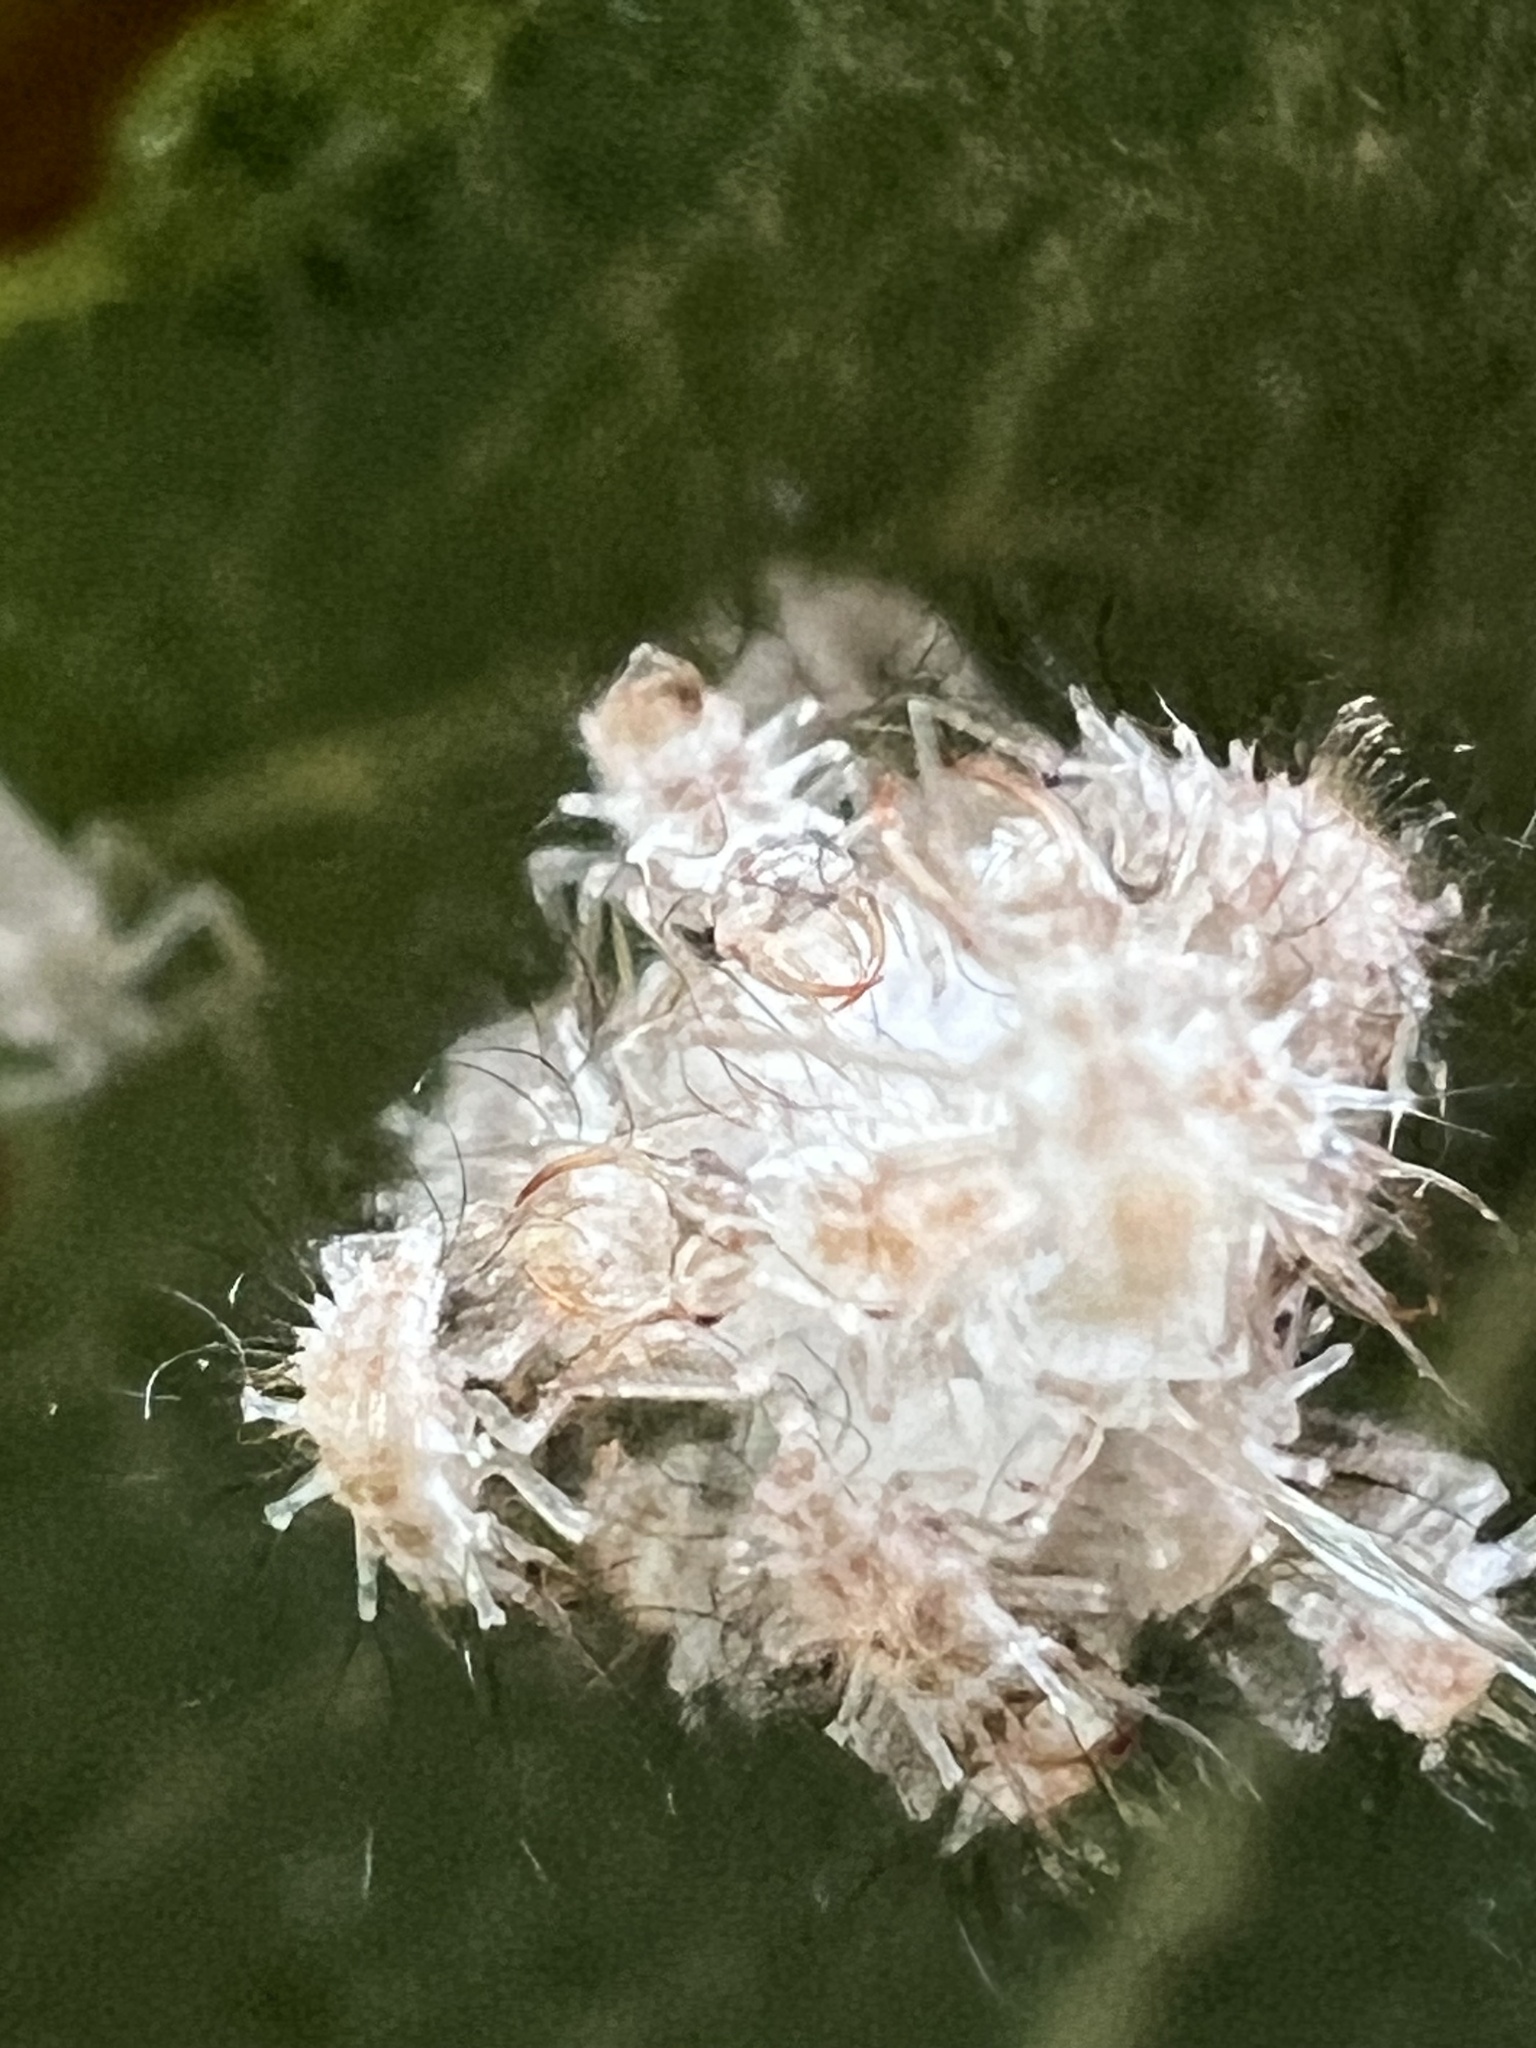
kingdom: Animalia
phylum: Arthropoda
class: Insecta
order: Neuroptera
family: Chrysopidae
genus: Leucochrysa
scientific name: Leucochrysa pavida
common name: Lichen-carrying green lacewing
